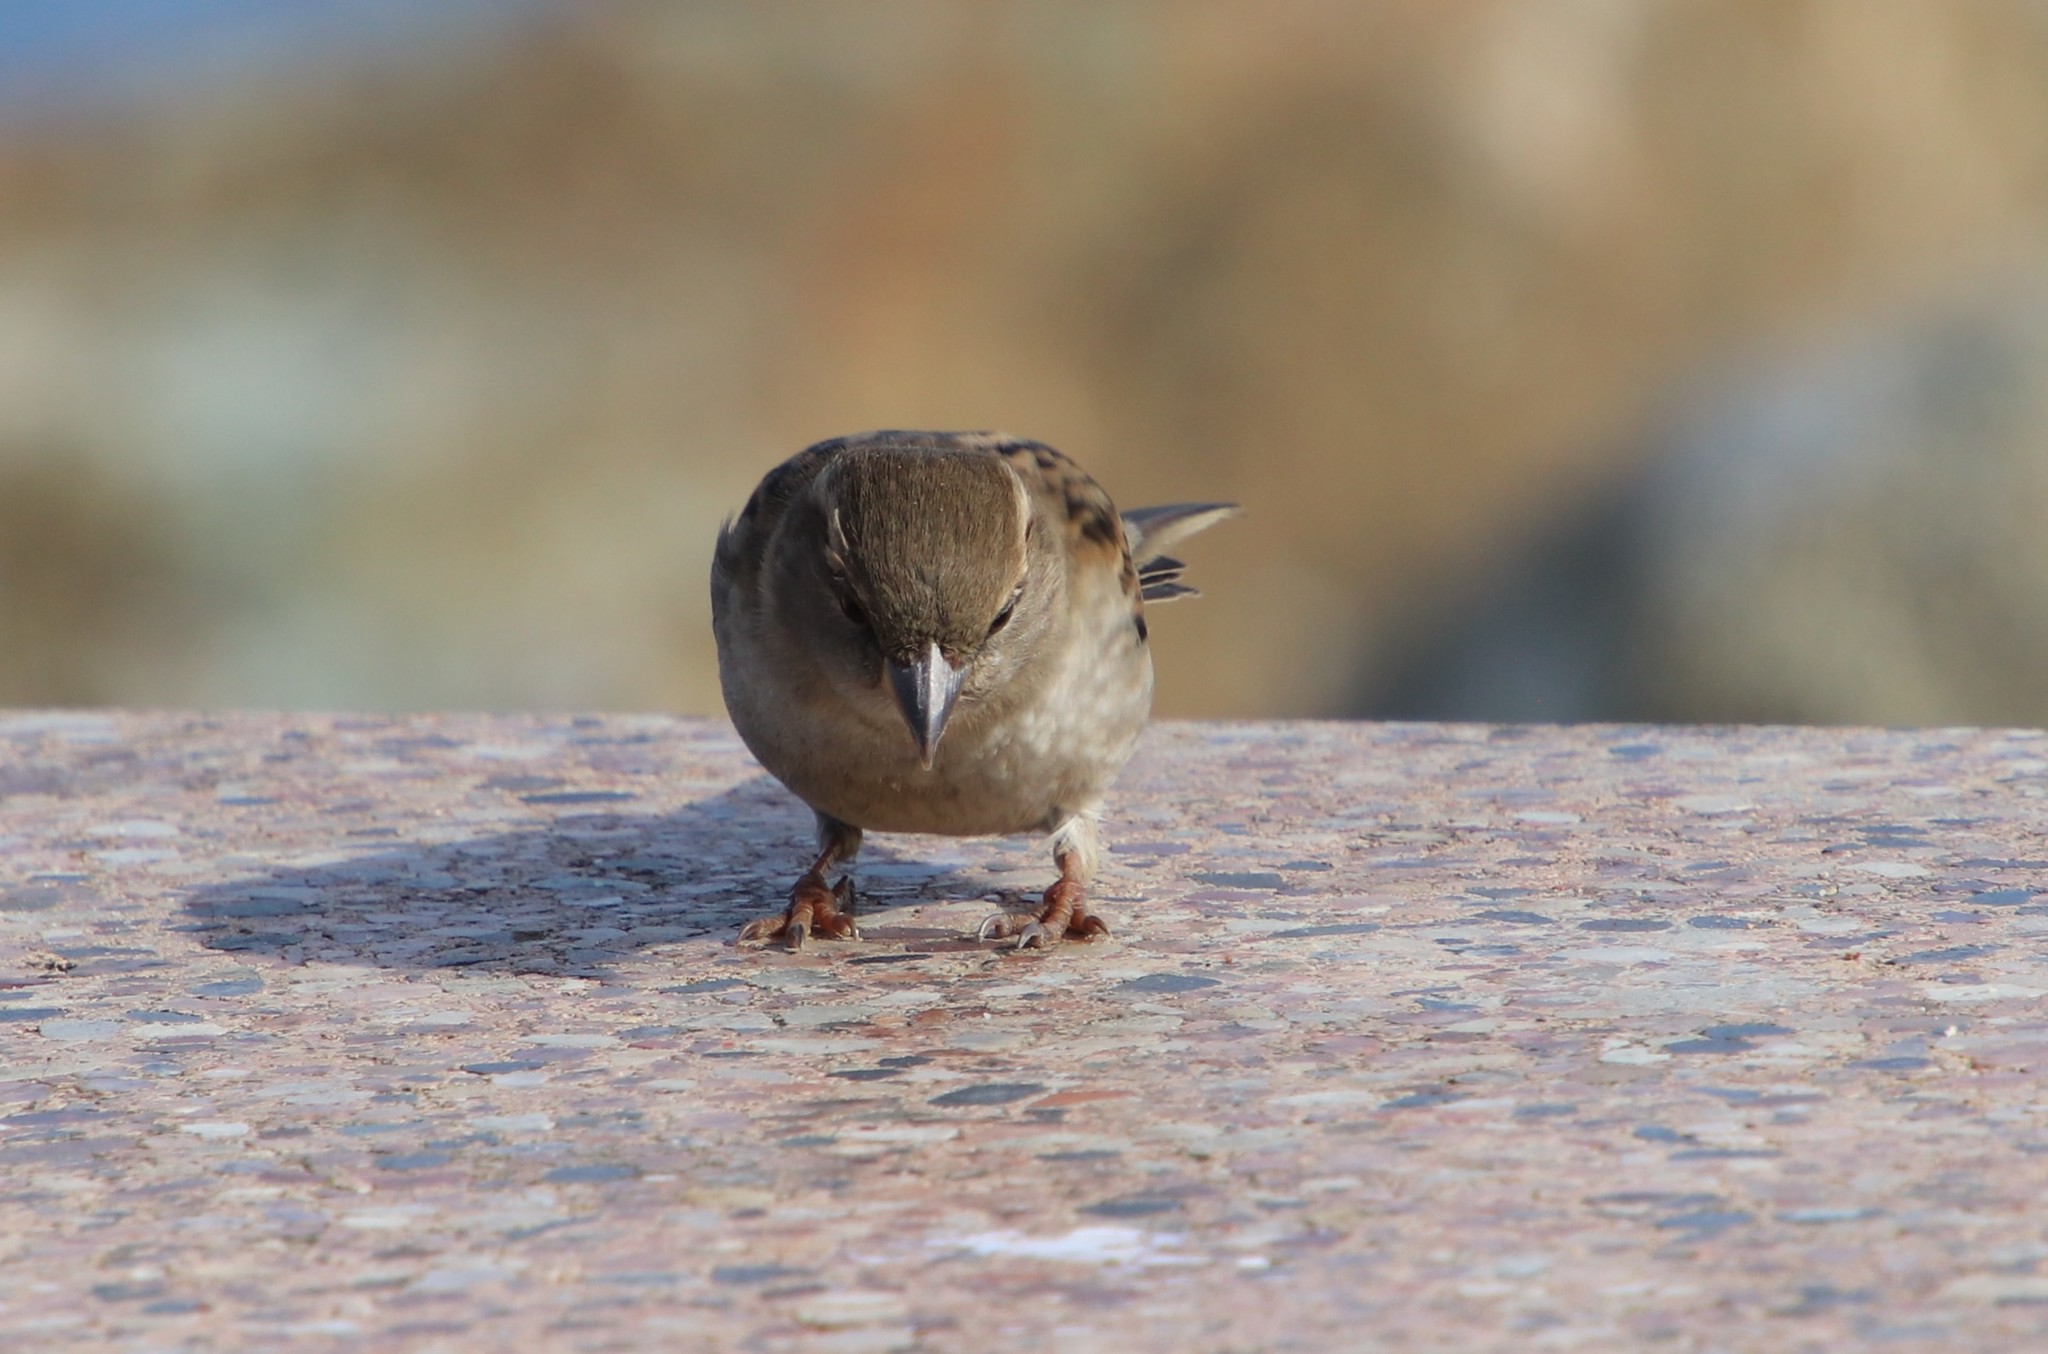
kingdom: Animalia
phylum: Chordata
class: Aves
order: Passeriformes
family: Passeridae
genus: Passer
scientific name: Passer domesticus
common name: House sparrow
